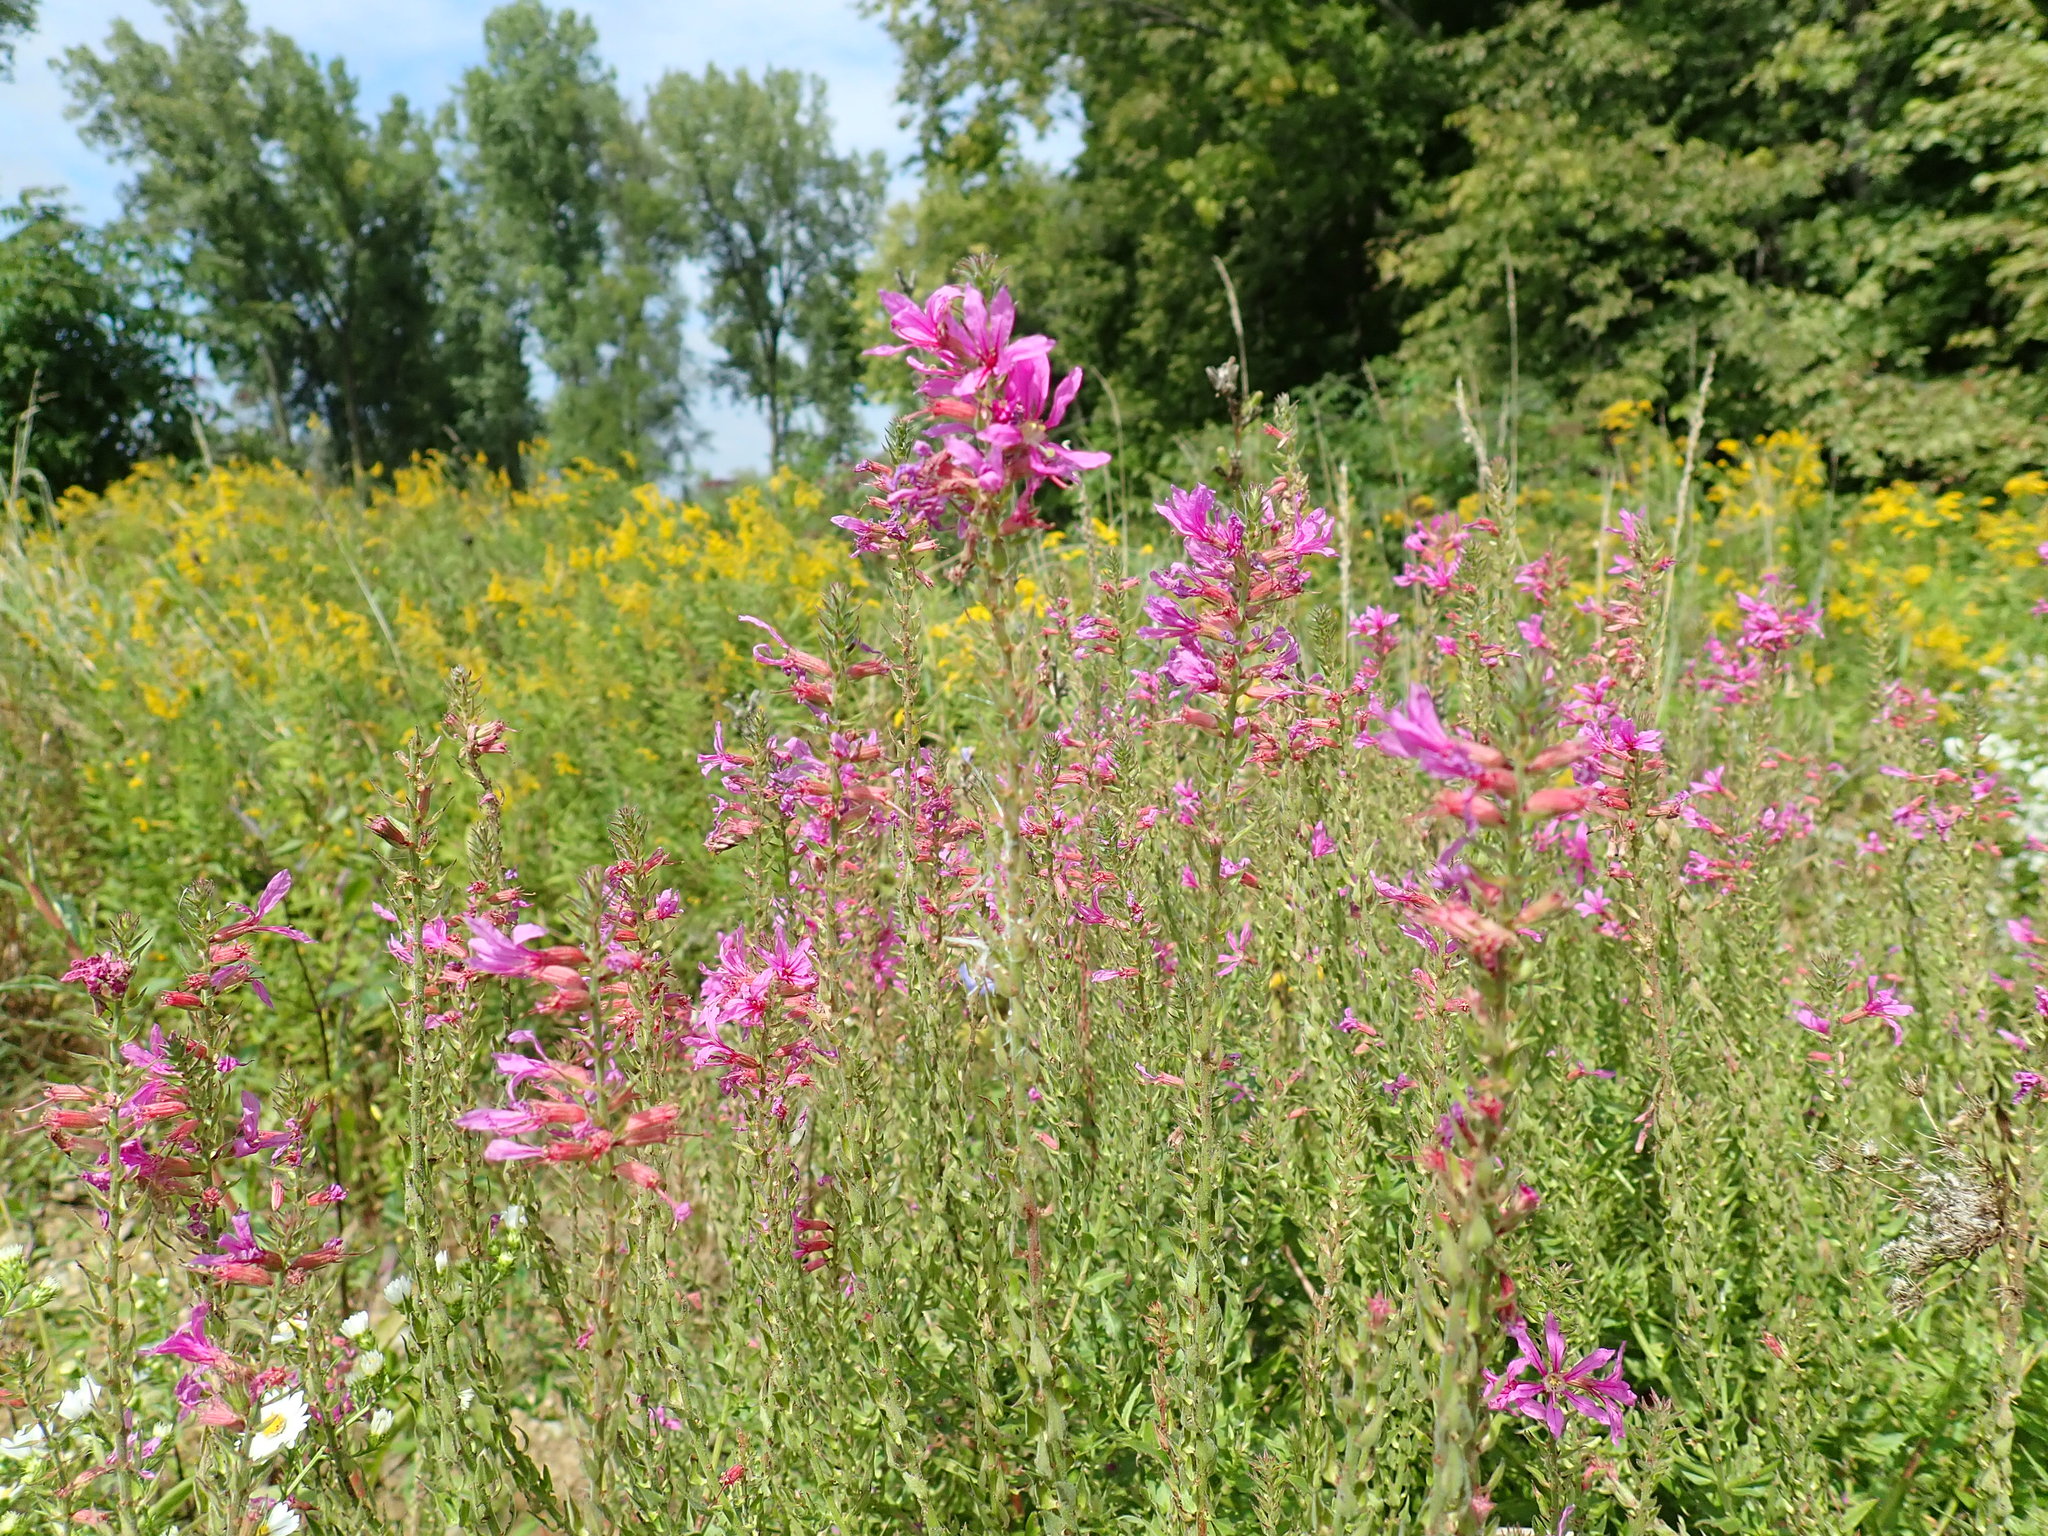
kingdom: Plantae
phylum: Tracheophyta
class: Magnoliopsida
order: Myrtales
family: Lythraceae
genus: Lythrum
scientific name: Lythrum salicaria
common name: Purple loosestrife
